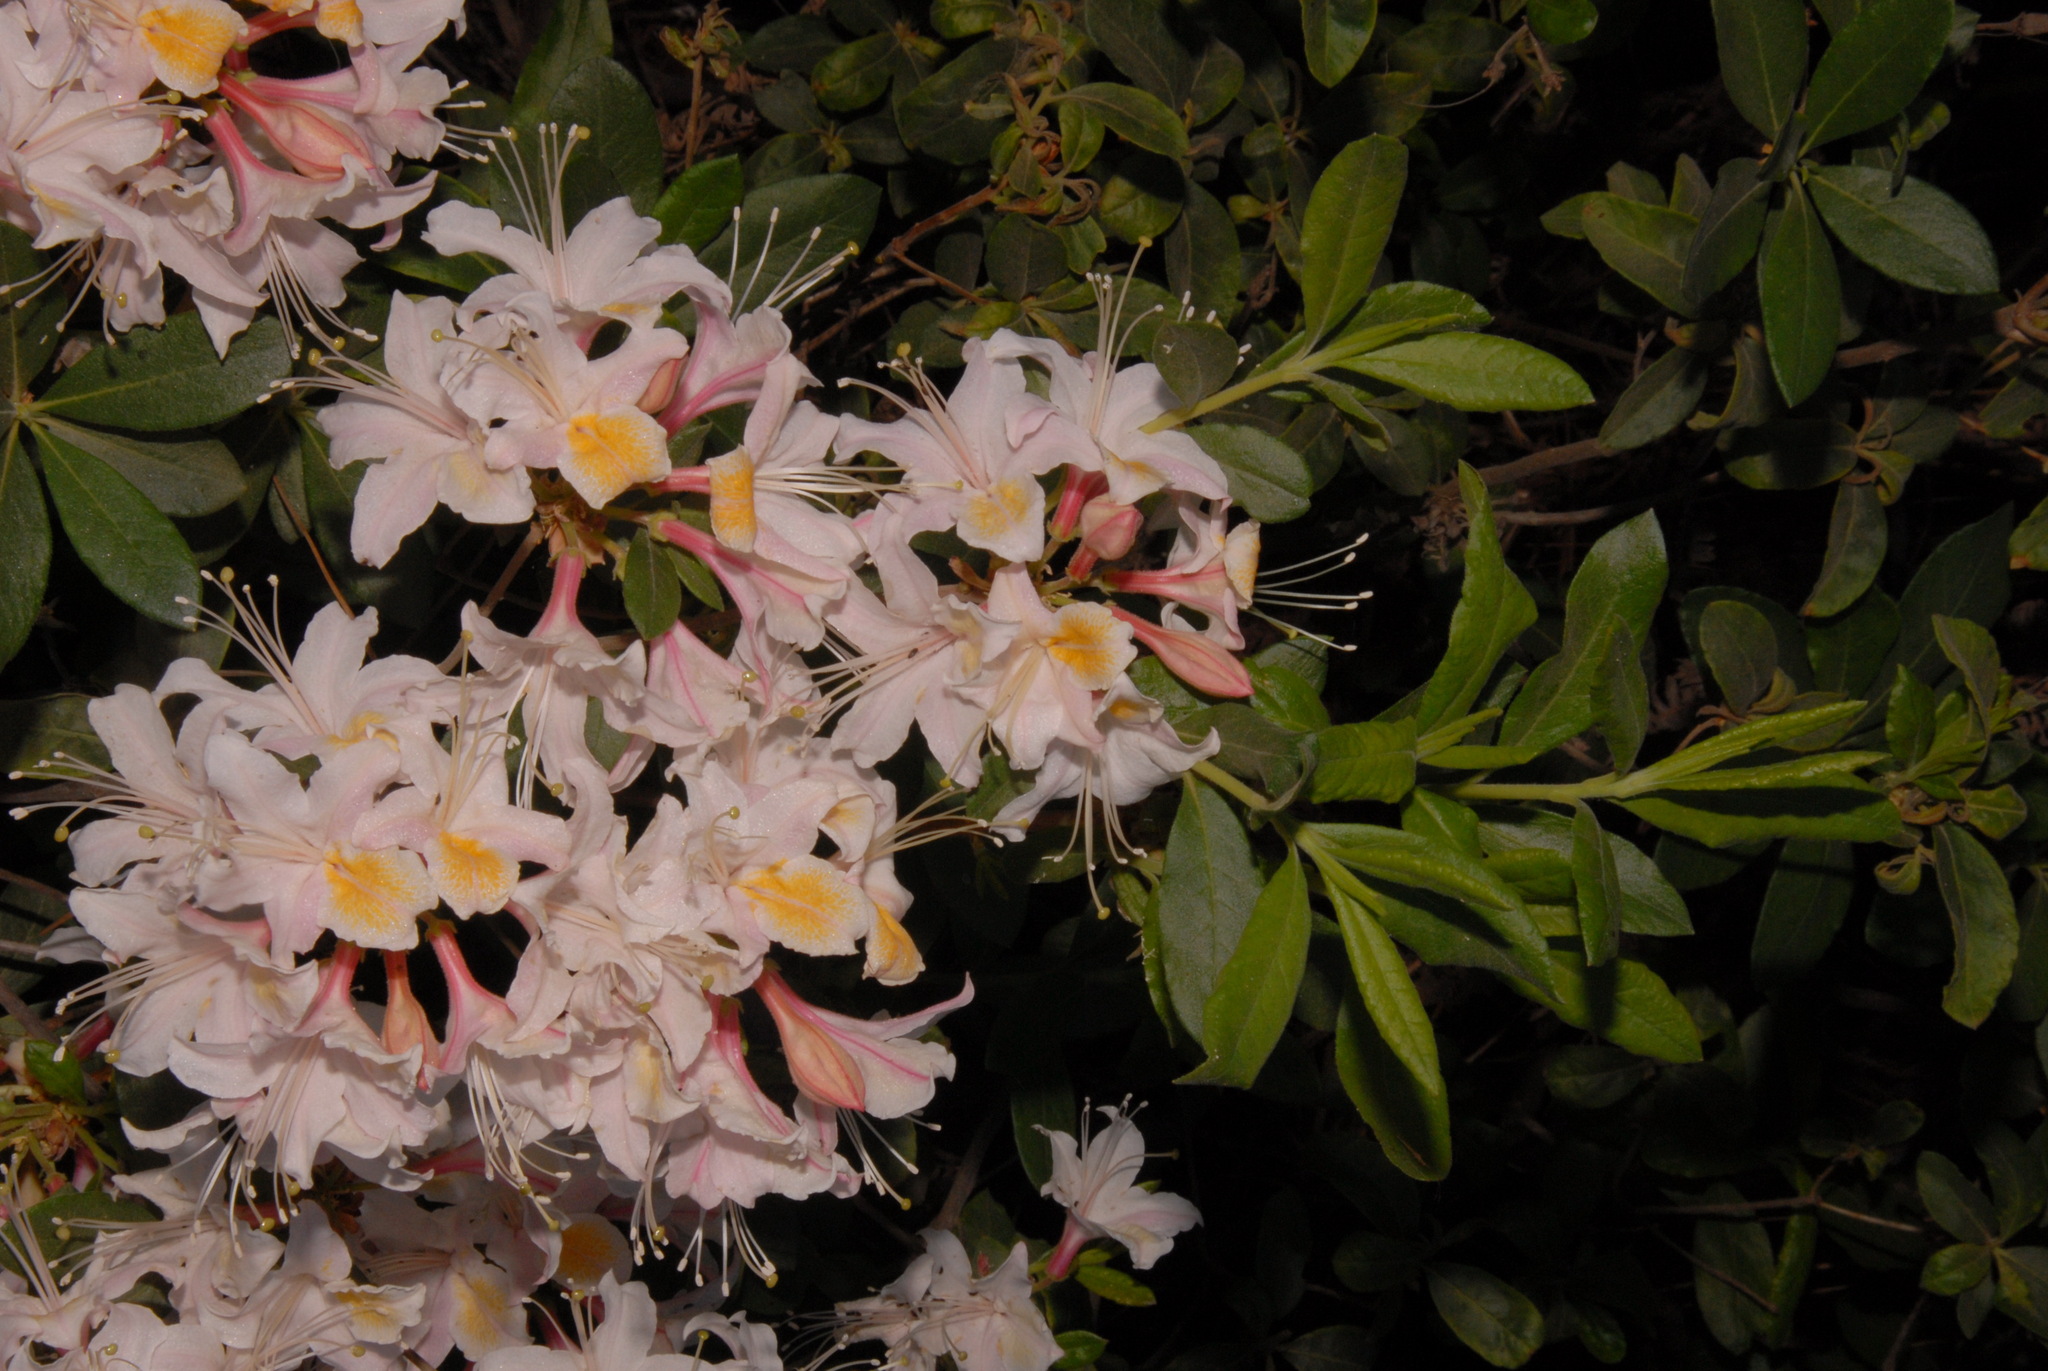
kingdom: Plantae
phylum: Tracheophyta
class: Magnoliopsida
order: Ericales
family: Ericaceae
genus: Rhododendron
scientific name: Rhododendron occidentale
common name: Western azalea
